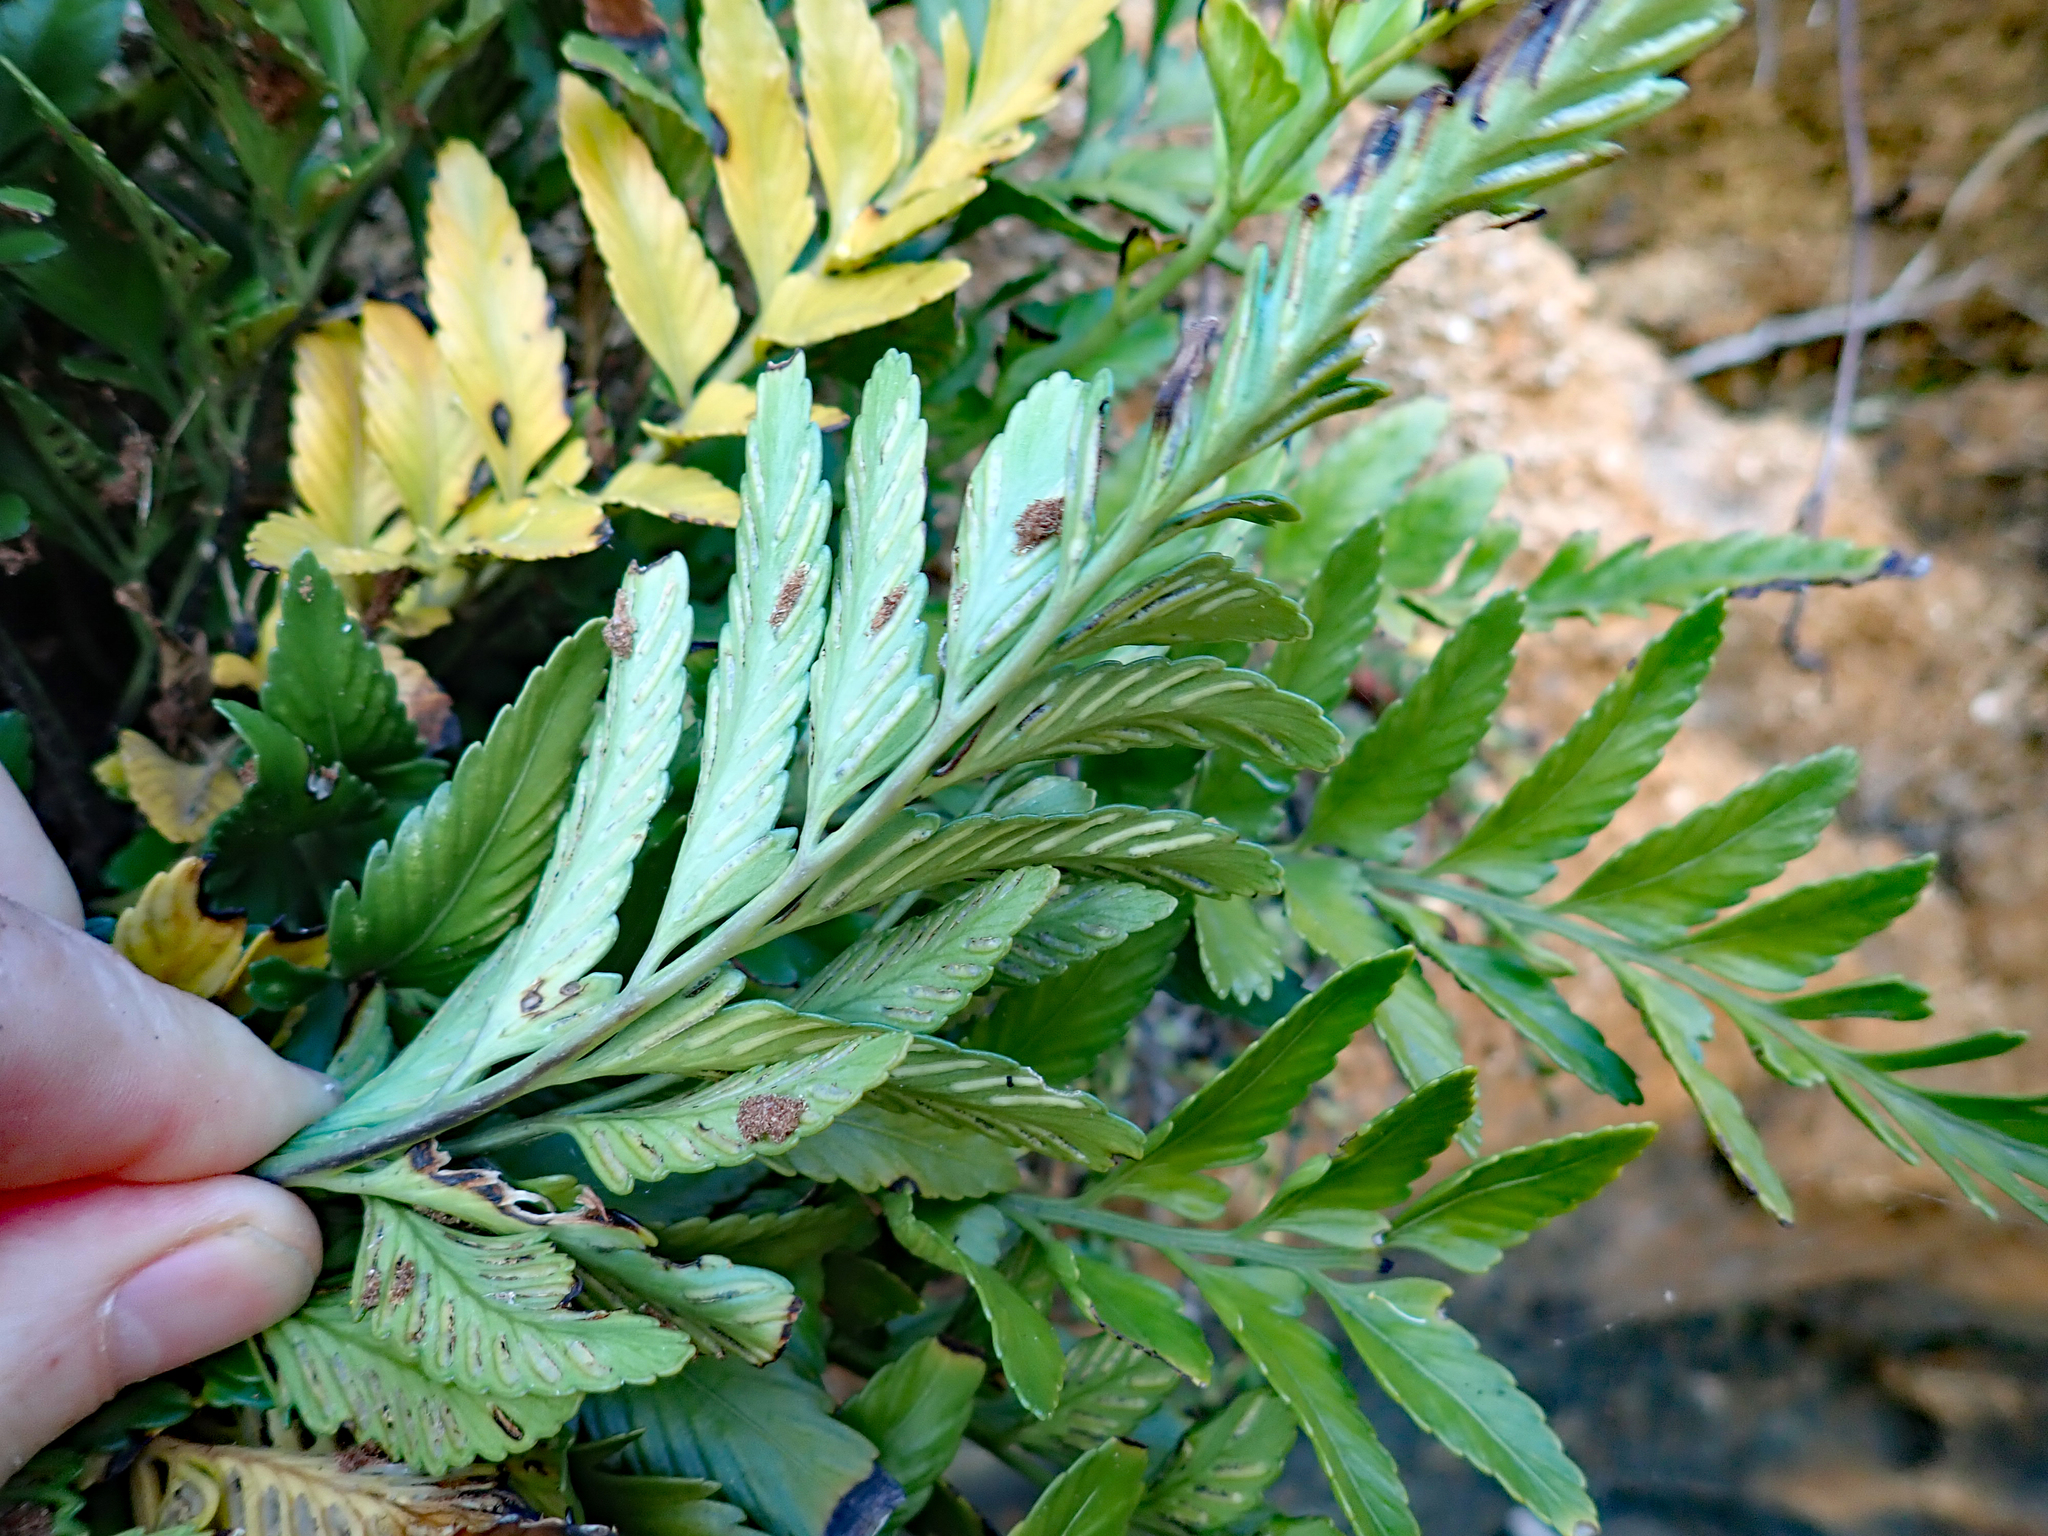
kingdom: Plantae
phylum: Tracheophyta
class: Polypodiopsida
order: Polypodiales
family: Aspleniaceae
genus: Asplenium
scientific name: Asplenium lyallii
